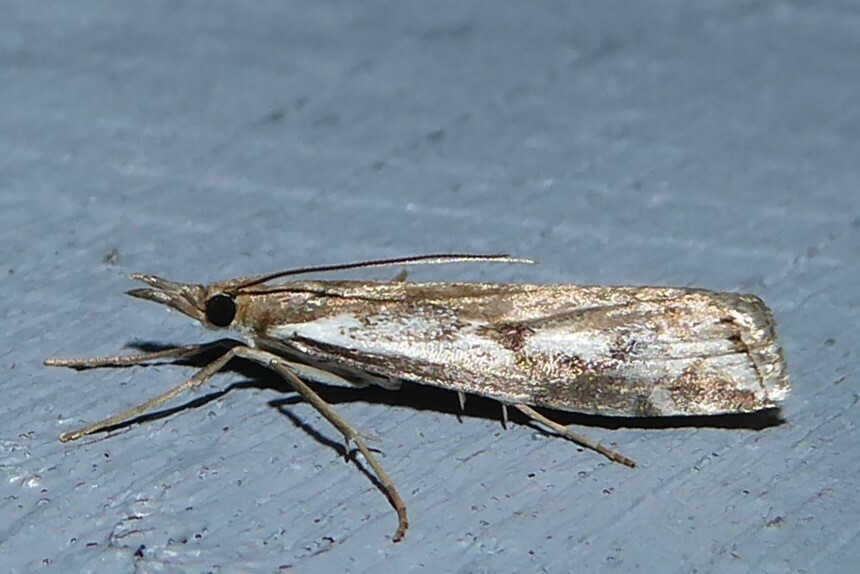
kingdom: Animalia
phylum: Arthropoda
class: Insecta
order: Lepidoptera
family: Crambidae
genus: Orocrambus
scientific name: Orocrambus vulgaris
